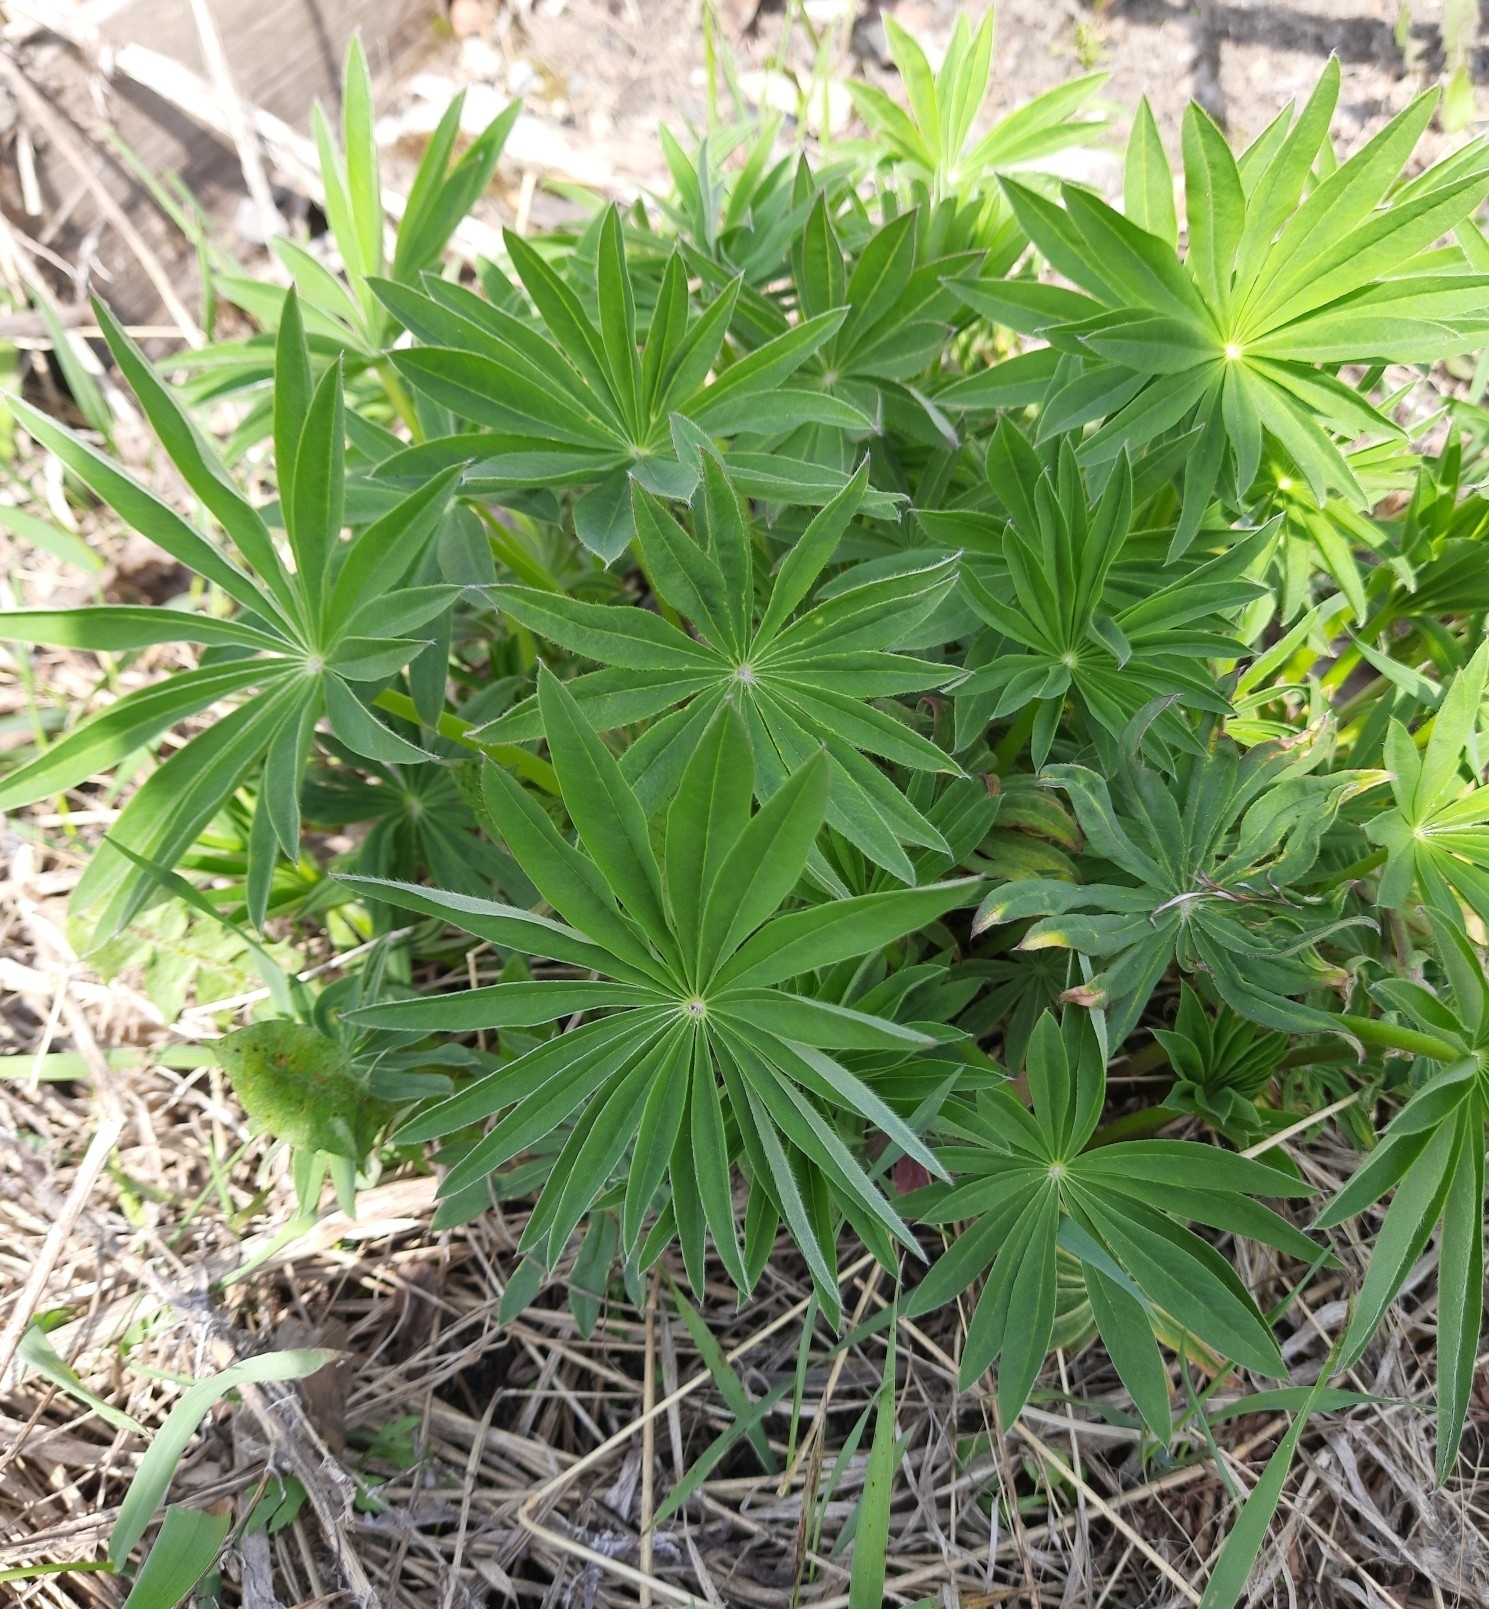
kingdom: Plantae
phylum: Tracheophyta
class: Magnoliopsida
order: Fabales
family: Fabaceae
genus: Lupinus
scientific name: Lupinus polyphyllus
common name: Garden lupin
